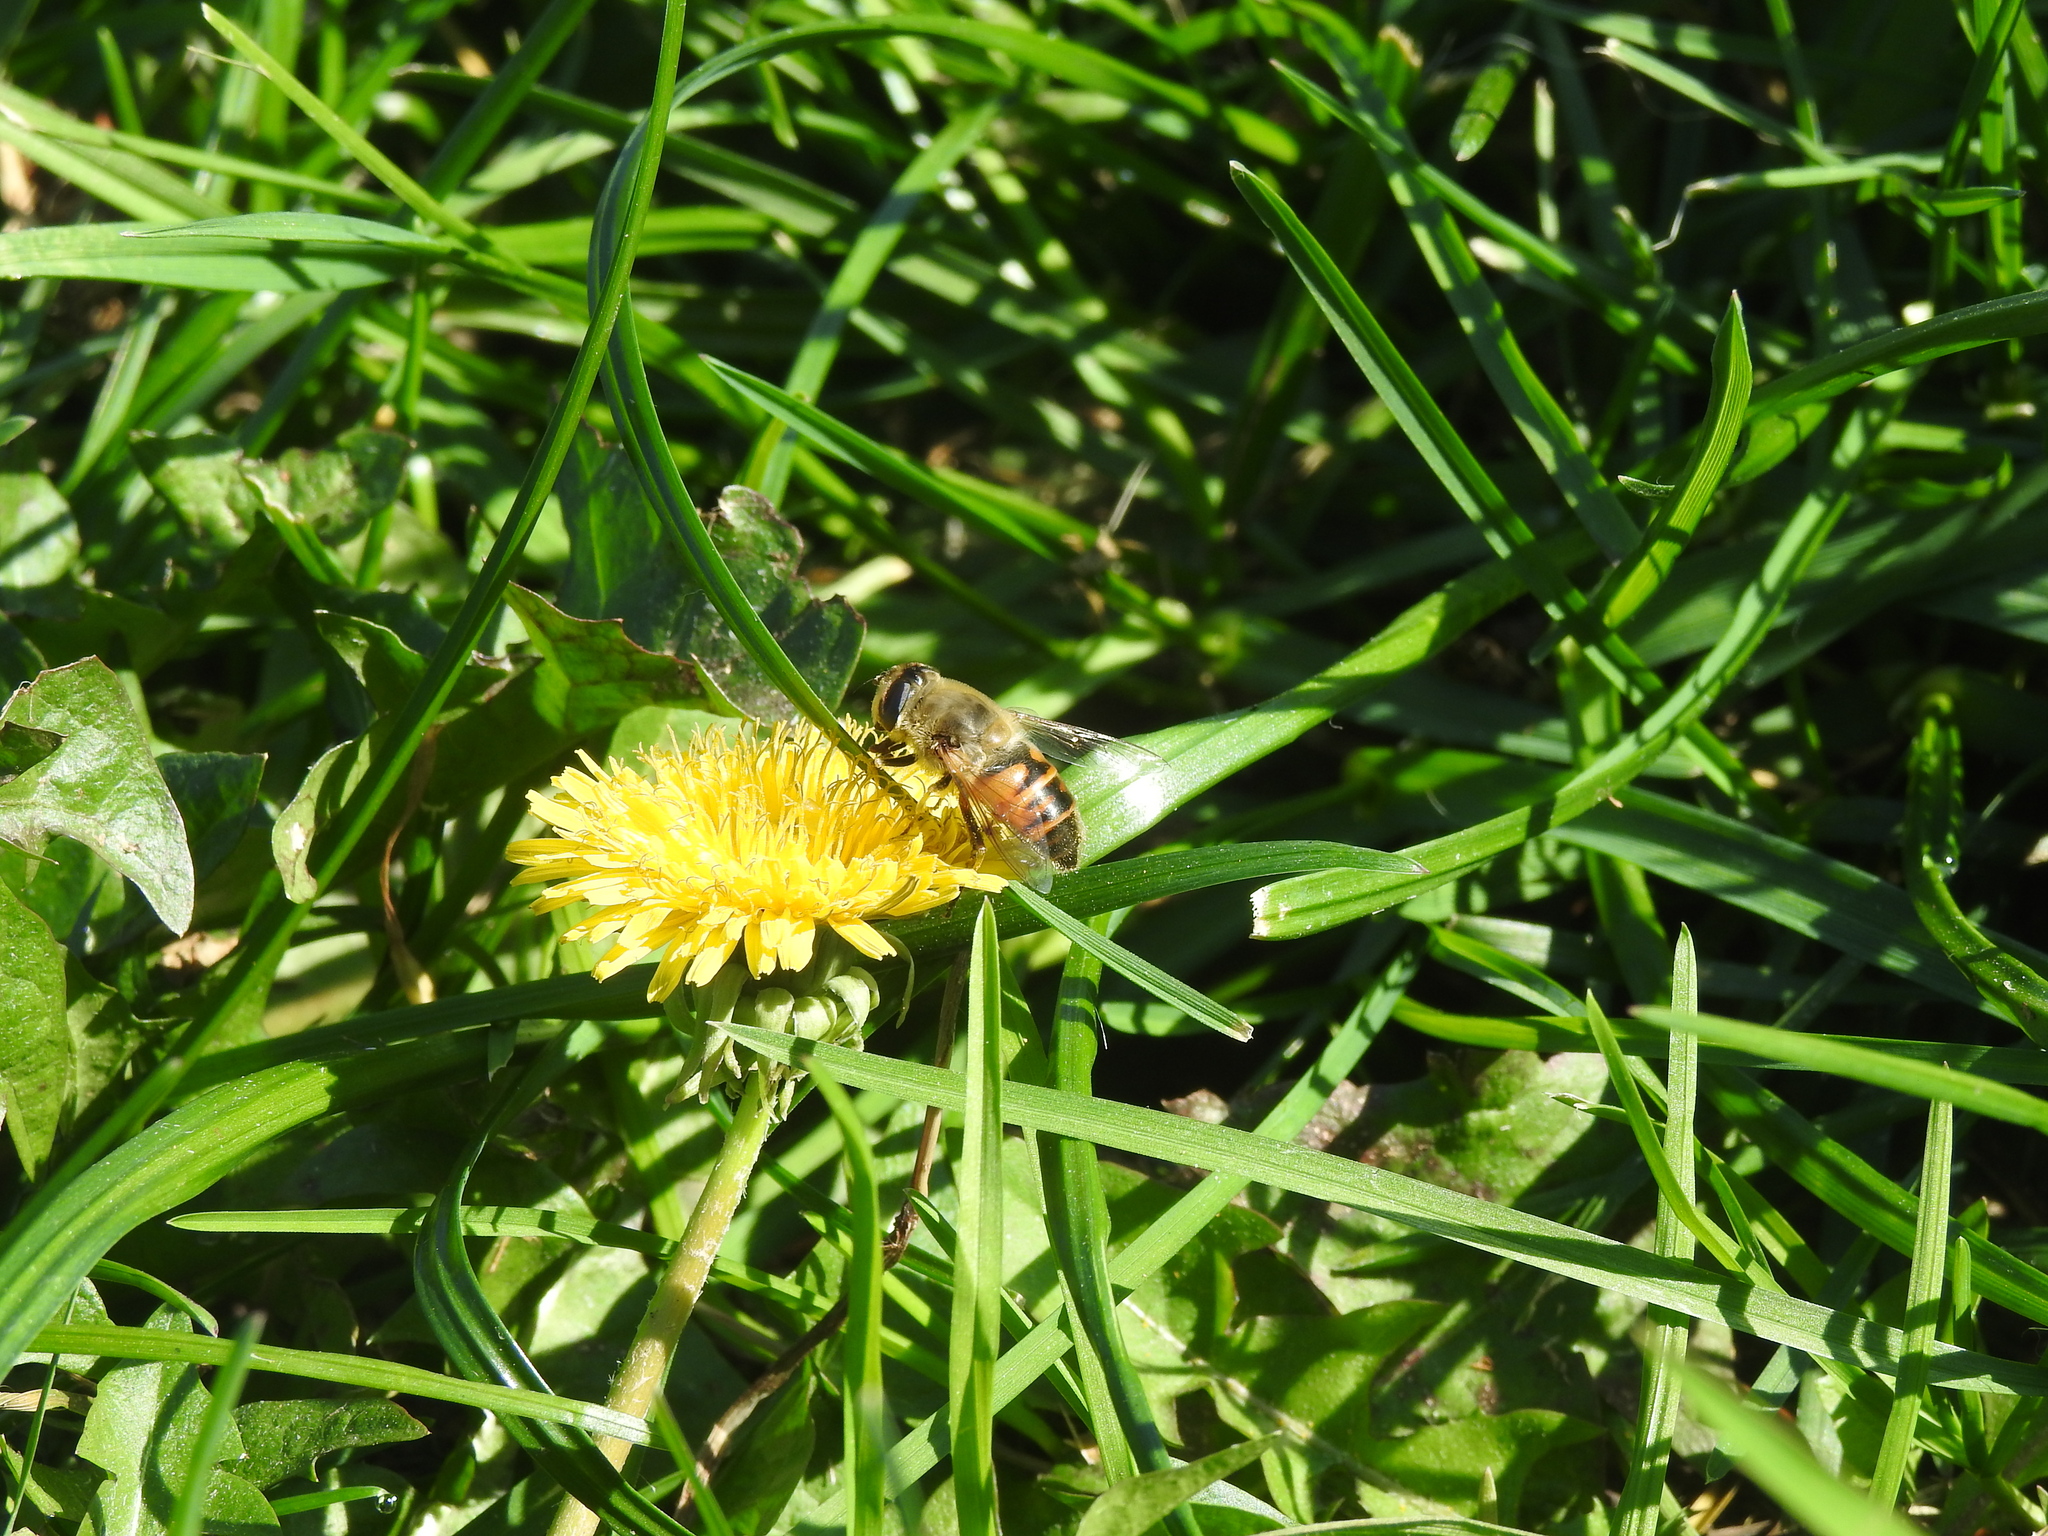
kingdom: Animalia
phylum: Arthropoda
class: Insecta
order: Diptera
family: Syrphidae
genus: Eristalis
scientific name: Eristalis tenax
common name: Drone fly
